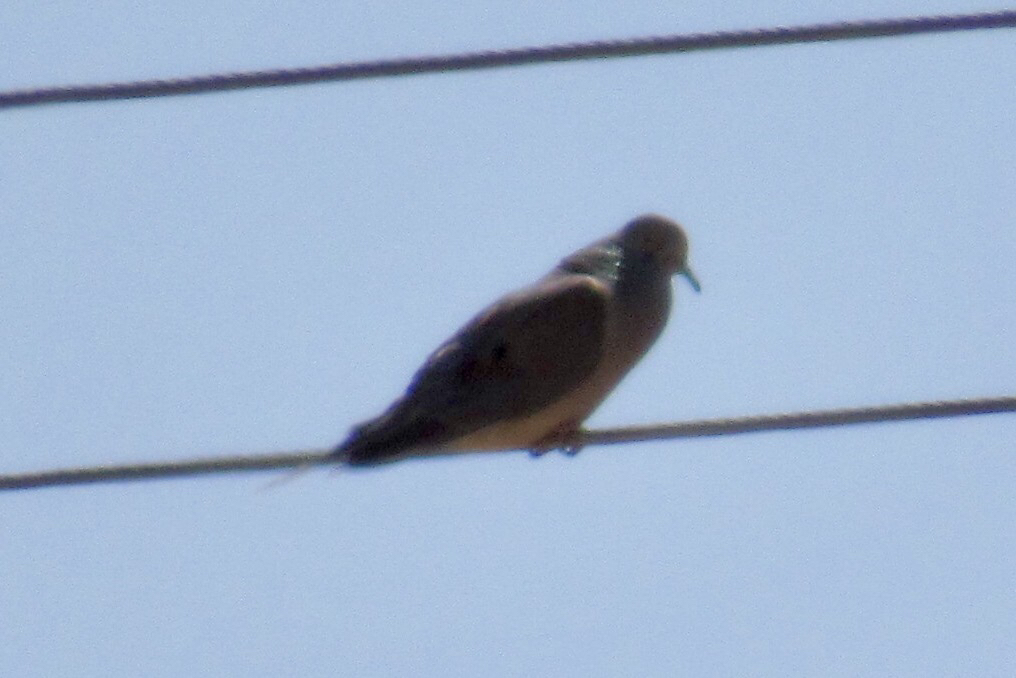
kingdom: Animalia
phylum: Chordata
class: Aves
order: Columbiformes
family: Columbidae
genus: Zenaida
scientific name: Zenaida macroura
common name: Mourning dove
